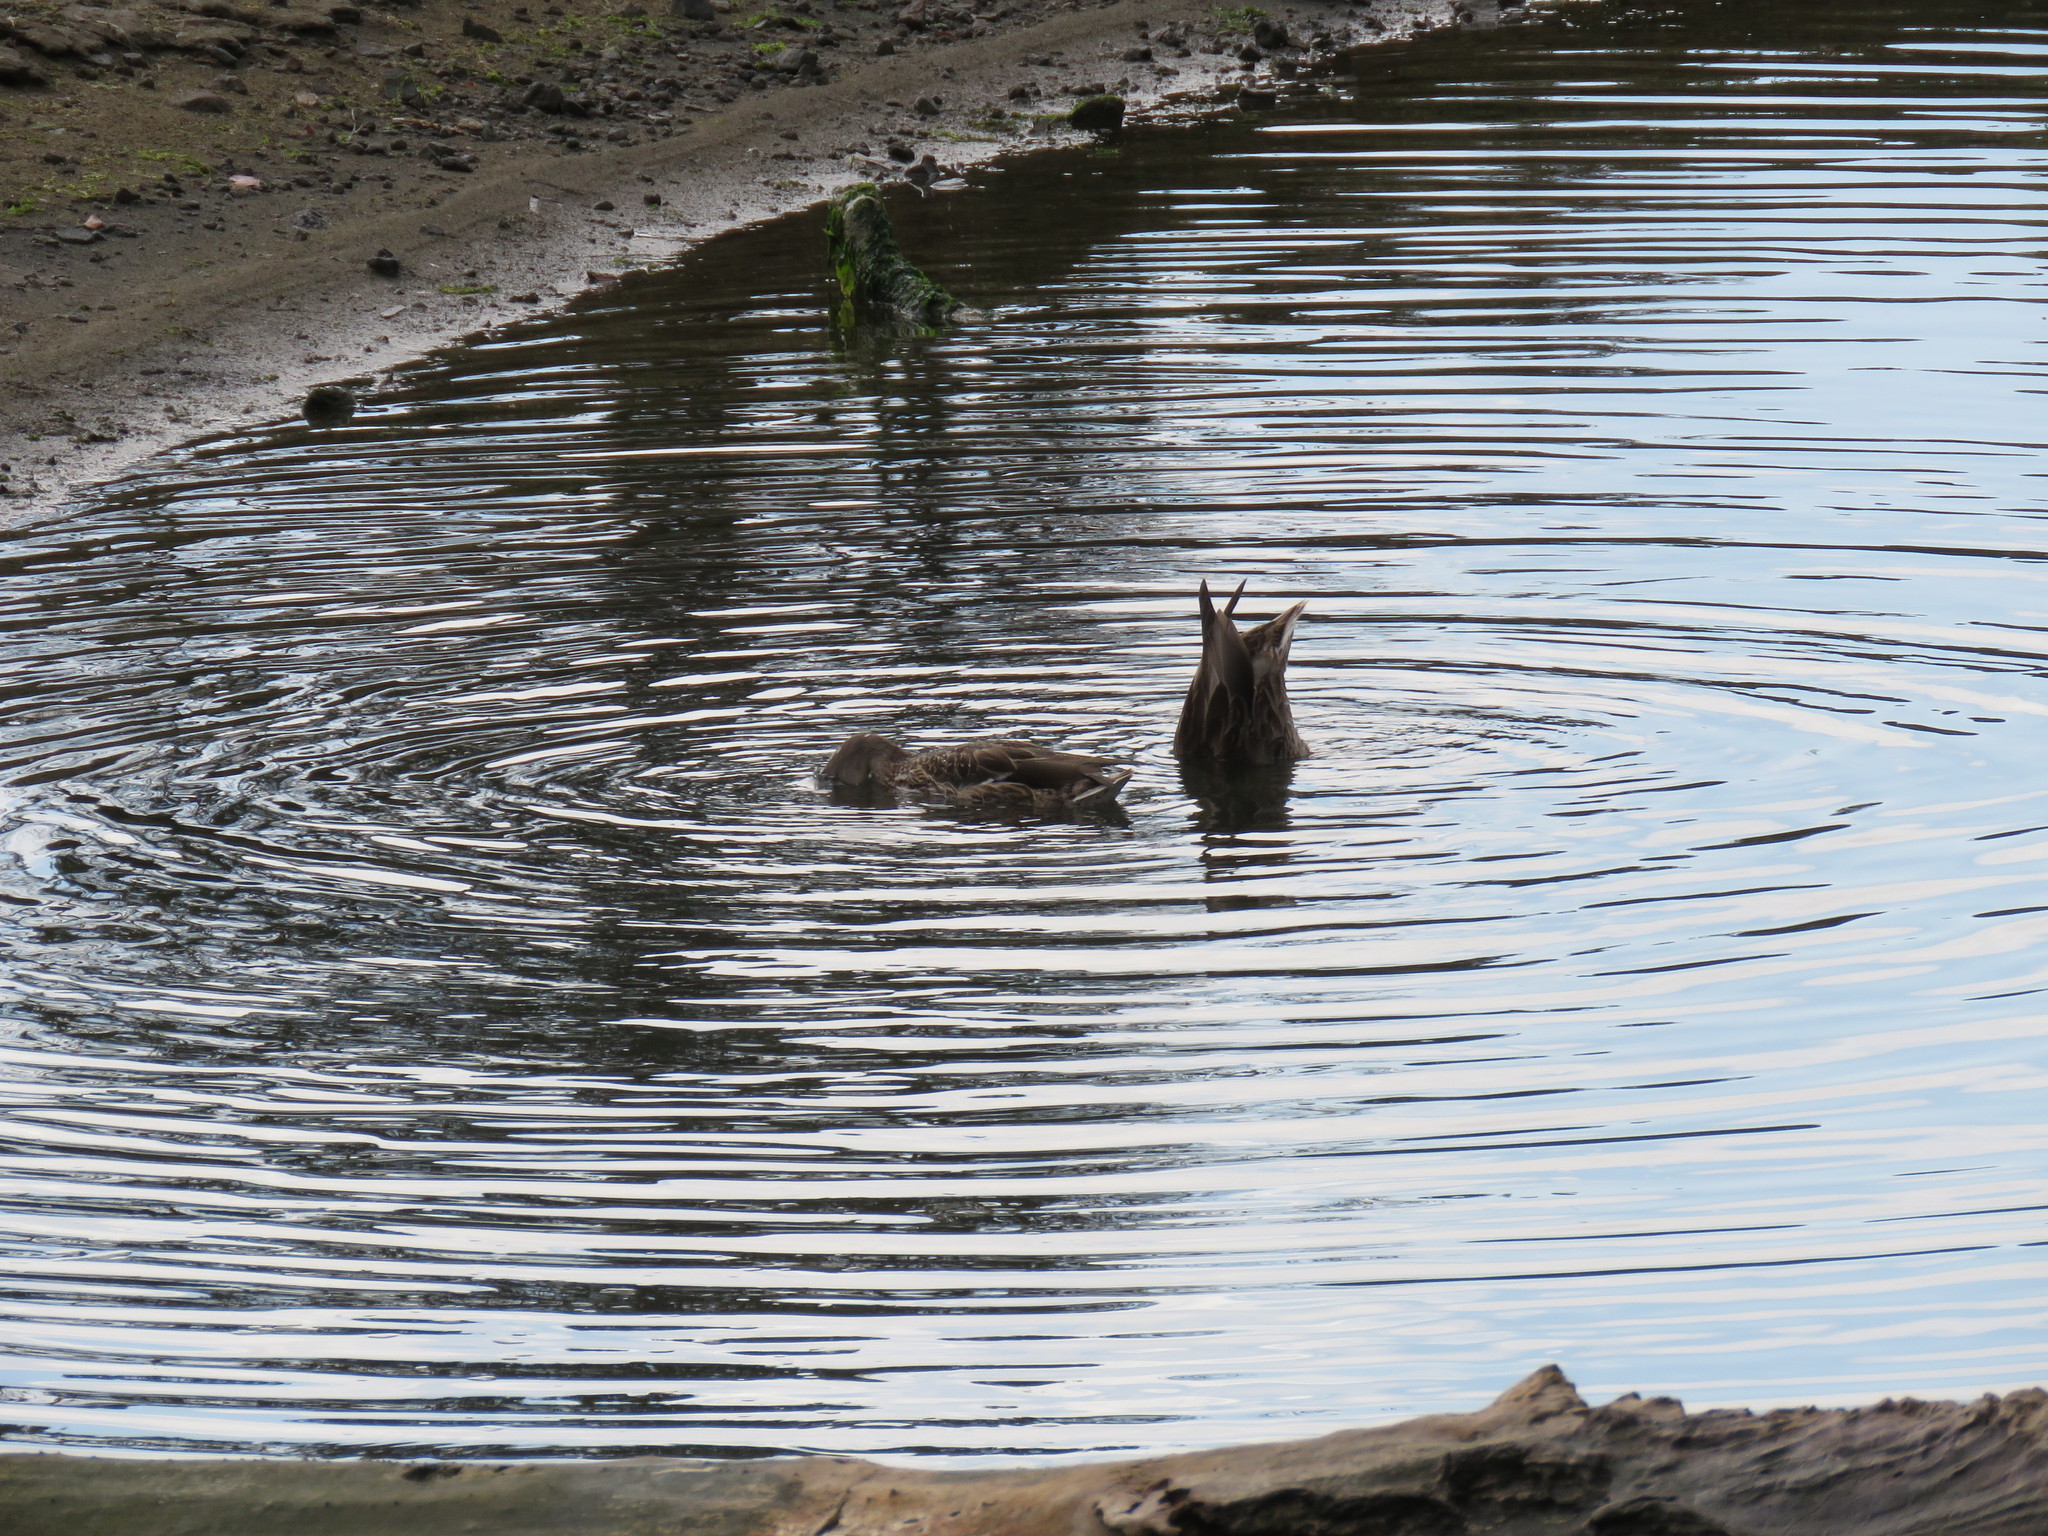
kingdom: Animalia
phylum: Chordata
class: Aves
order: Anseriformes
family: Anatidae
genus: Anas
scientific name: Anas platyrhynchos
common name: Mallard
